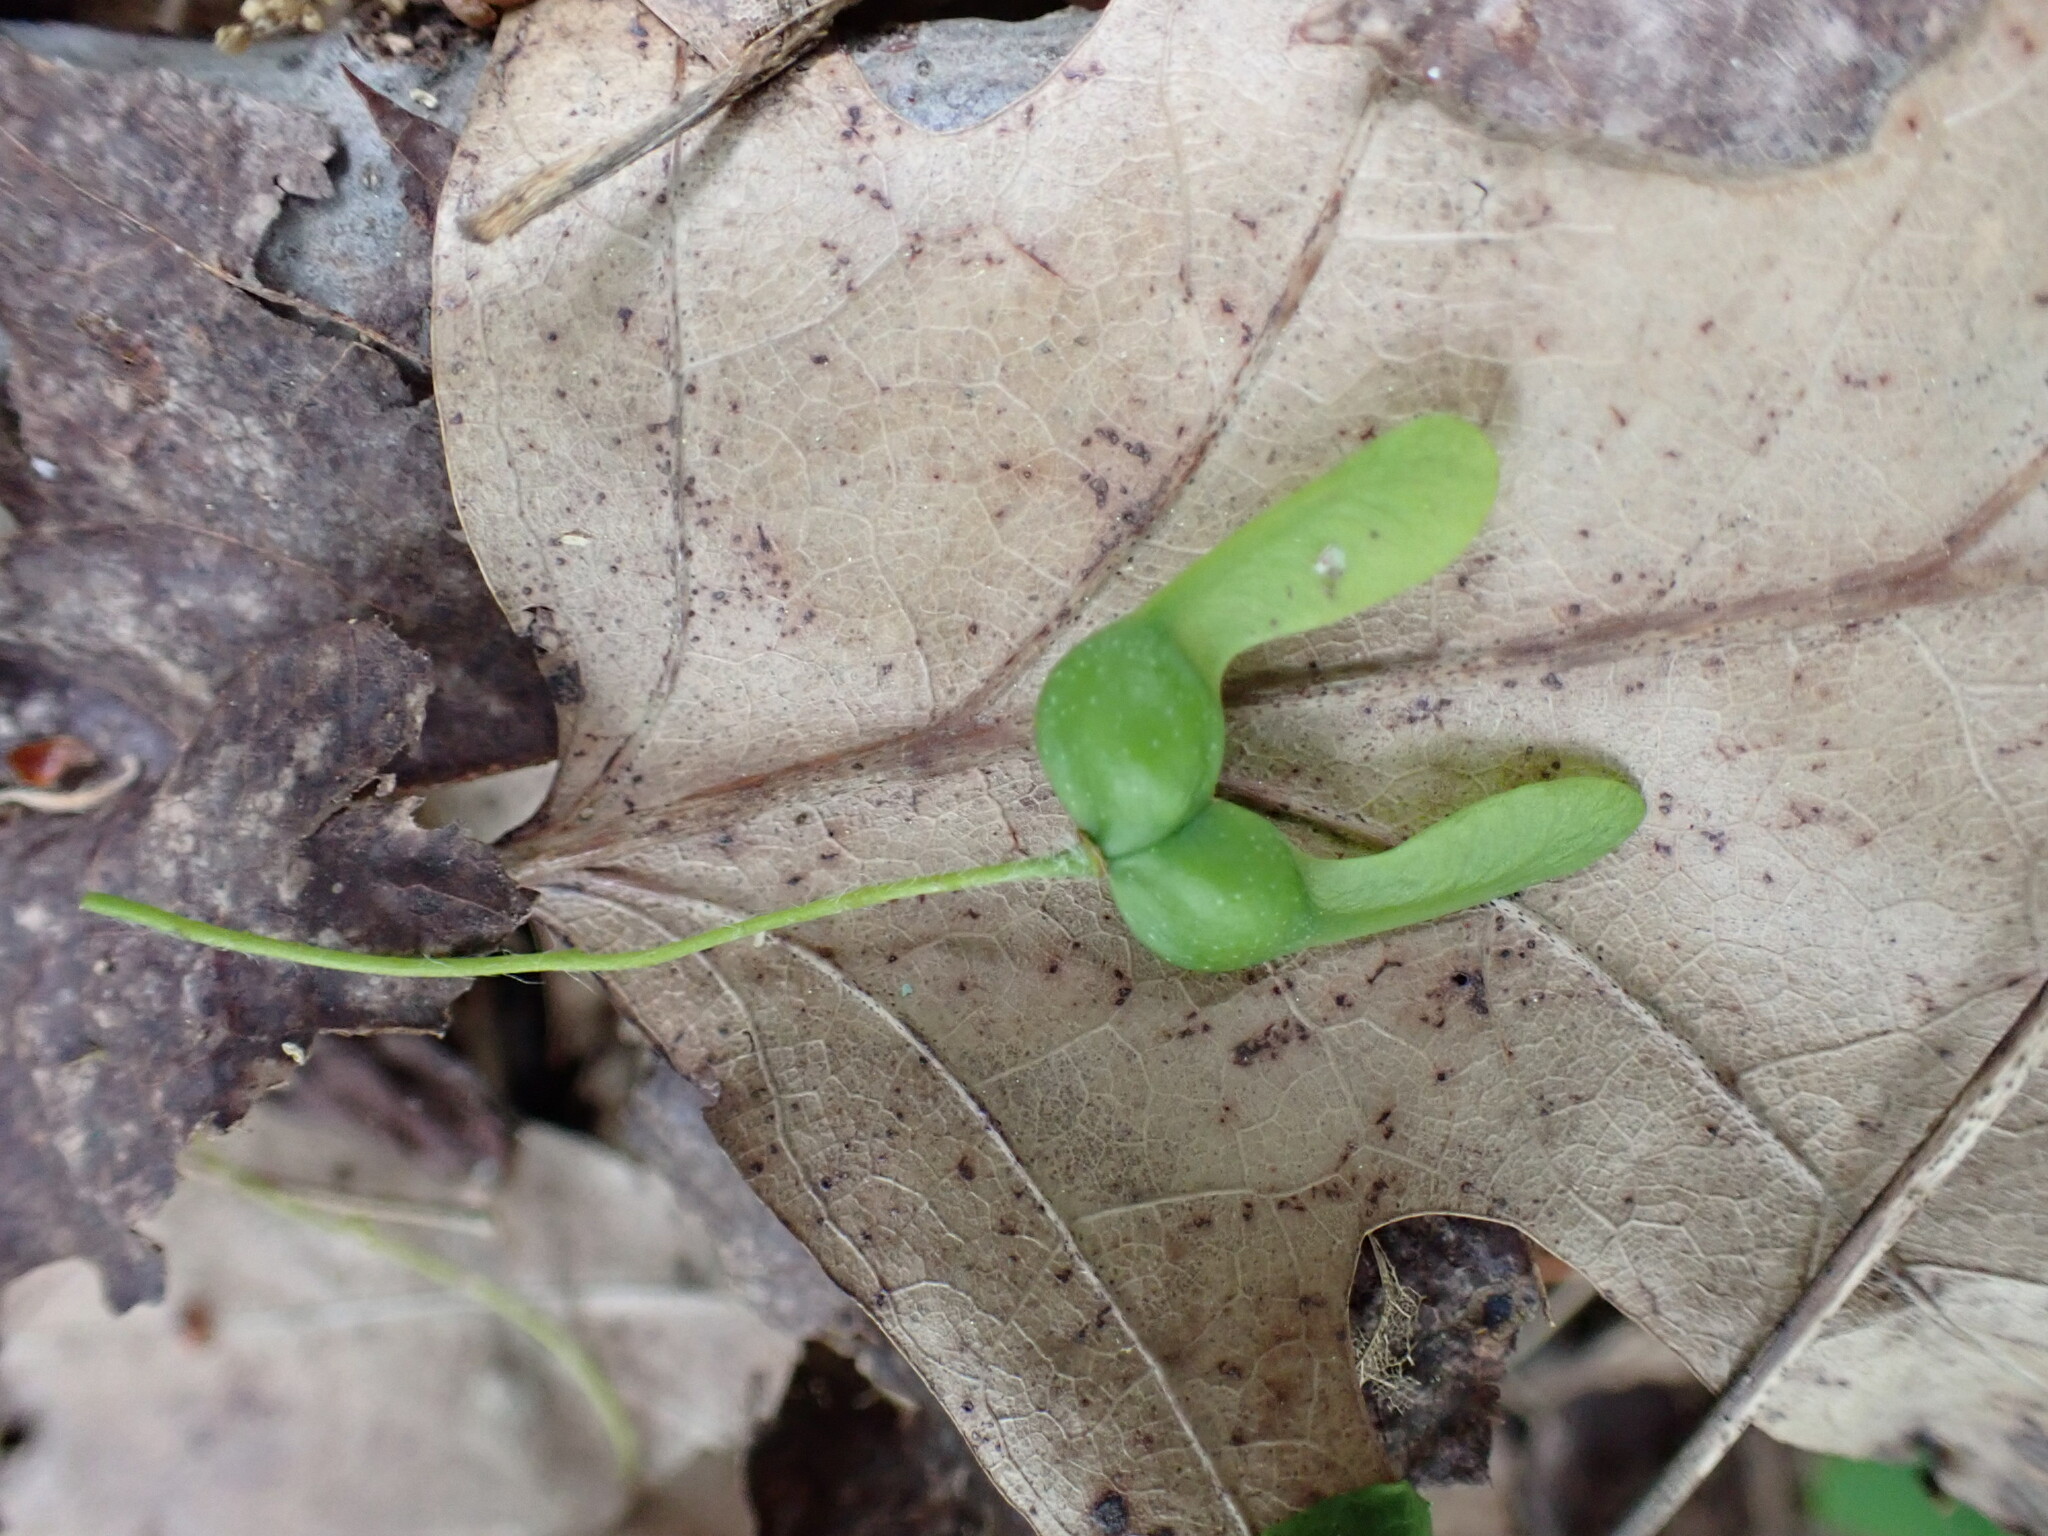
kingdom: Plantae
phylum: Tracheophyta
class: Magnoliopsida
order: Sapindales
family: Sapindaceae
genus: Acer
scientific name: Acer saccharum
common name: Sugar maple
